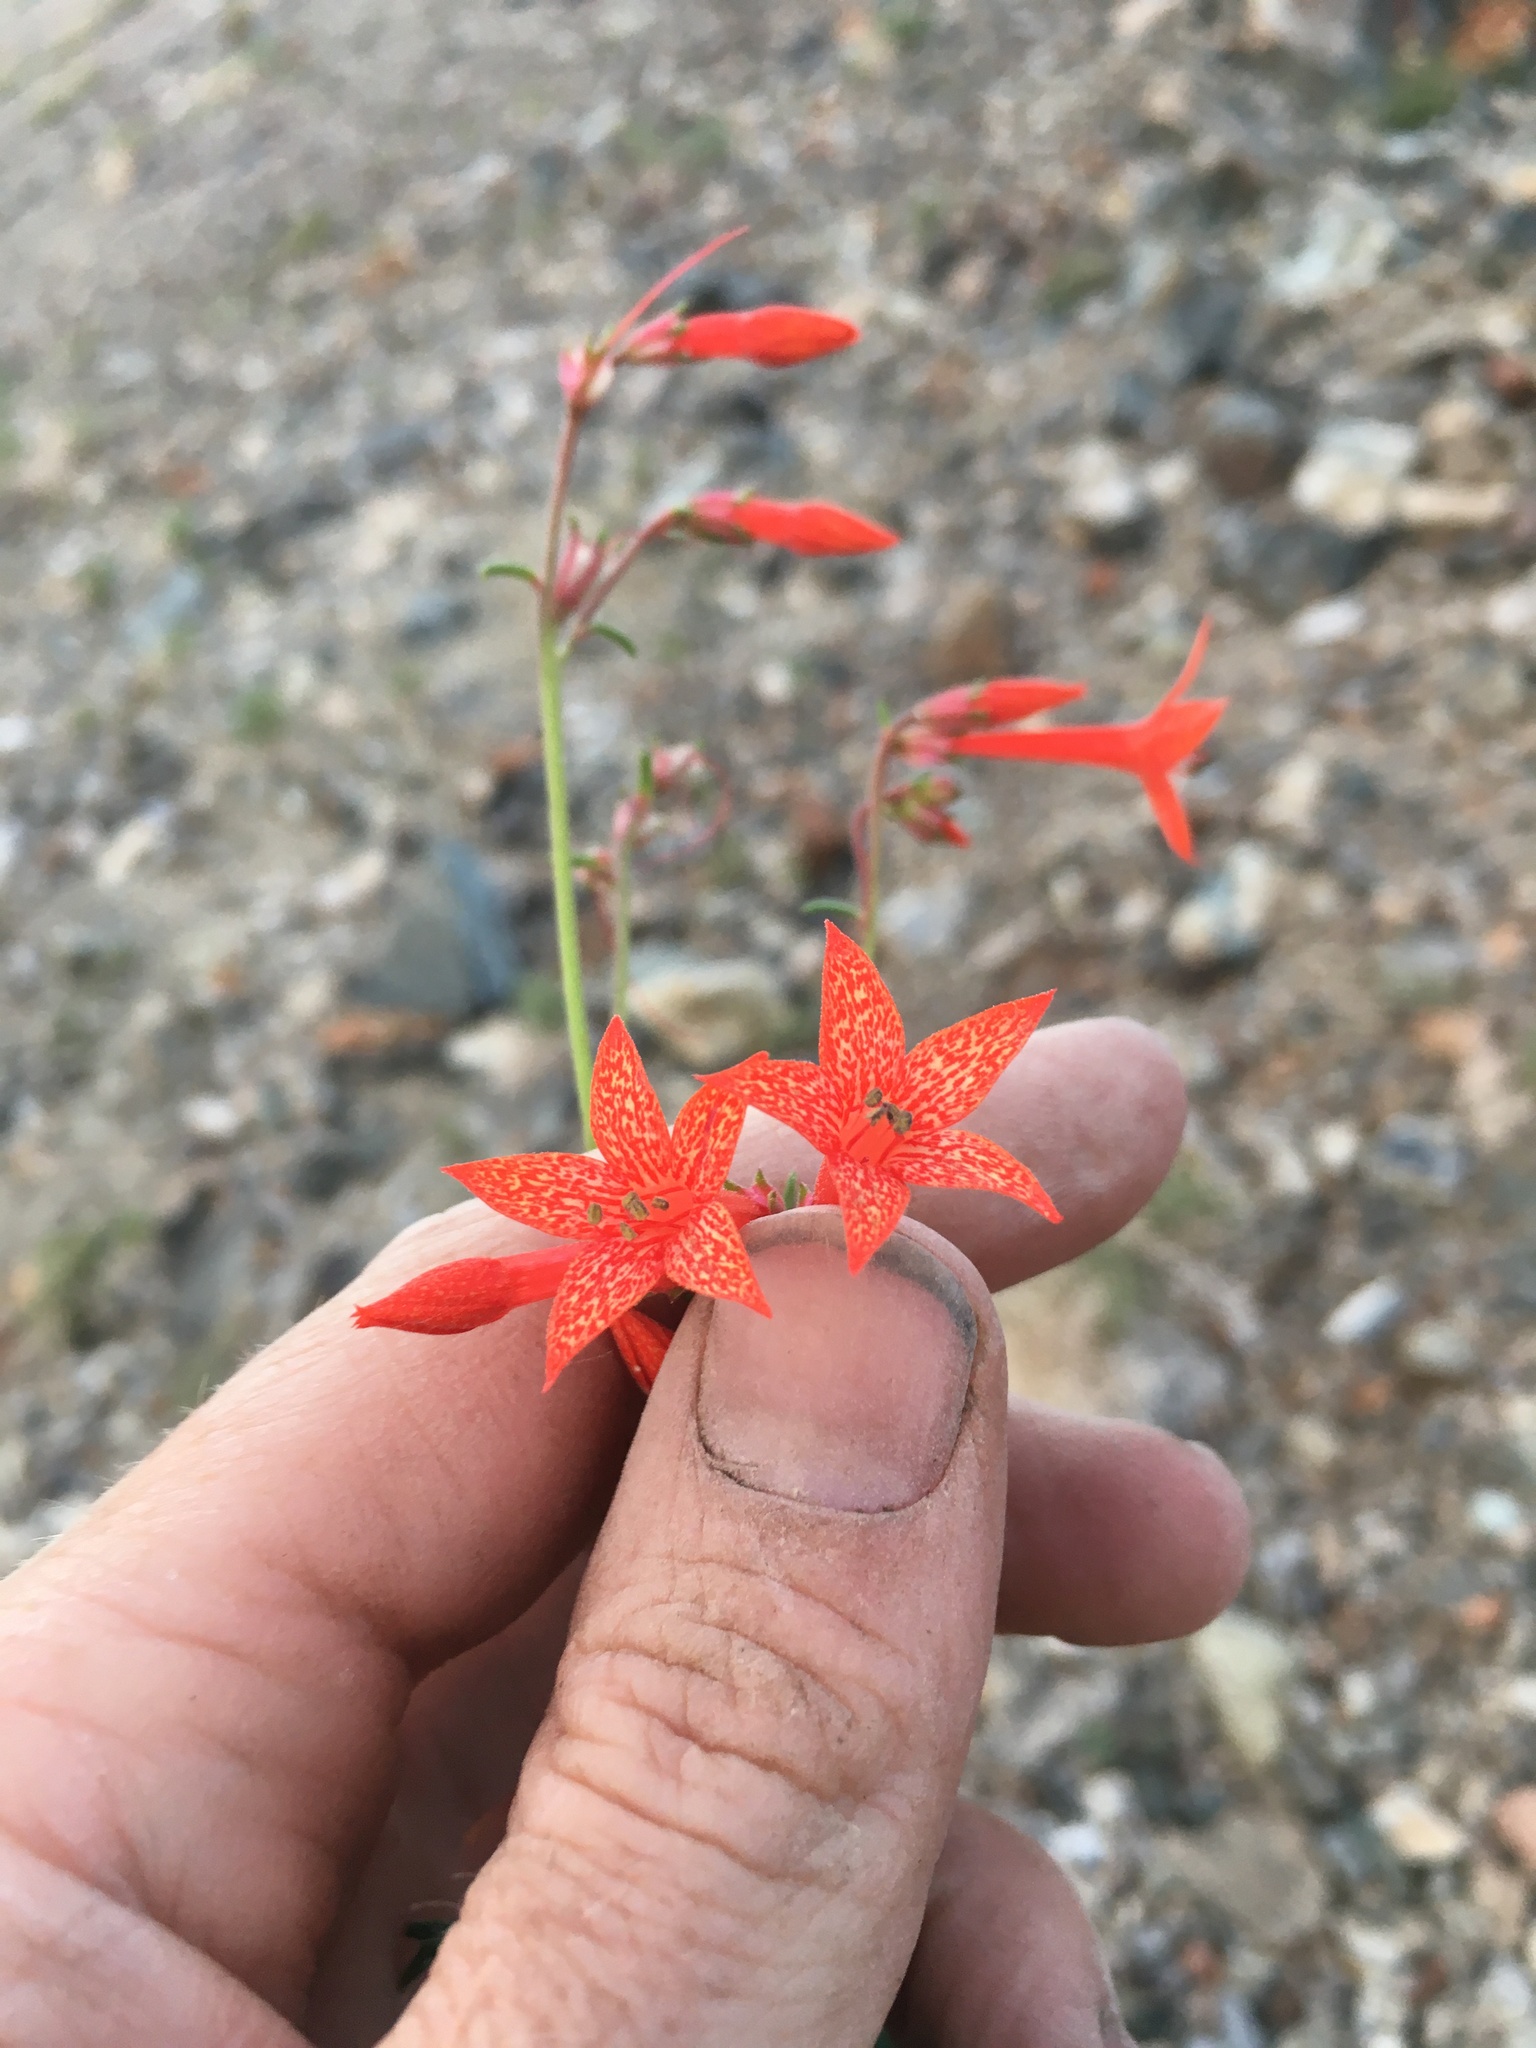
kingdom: Plantae
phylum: Tracheophyta
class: Magnoliopsida
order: Ericales
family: Polemoniaceae
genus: Ipomopsis
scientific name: Ipomopsis aggregata
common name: Scarlet gilia
